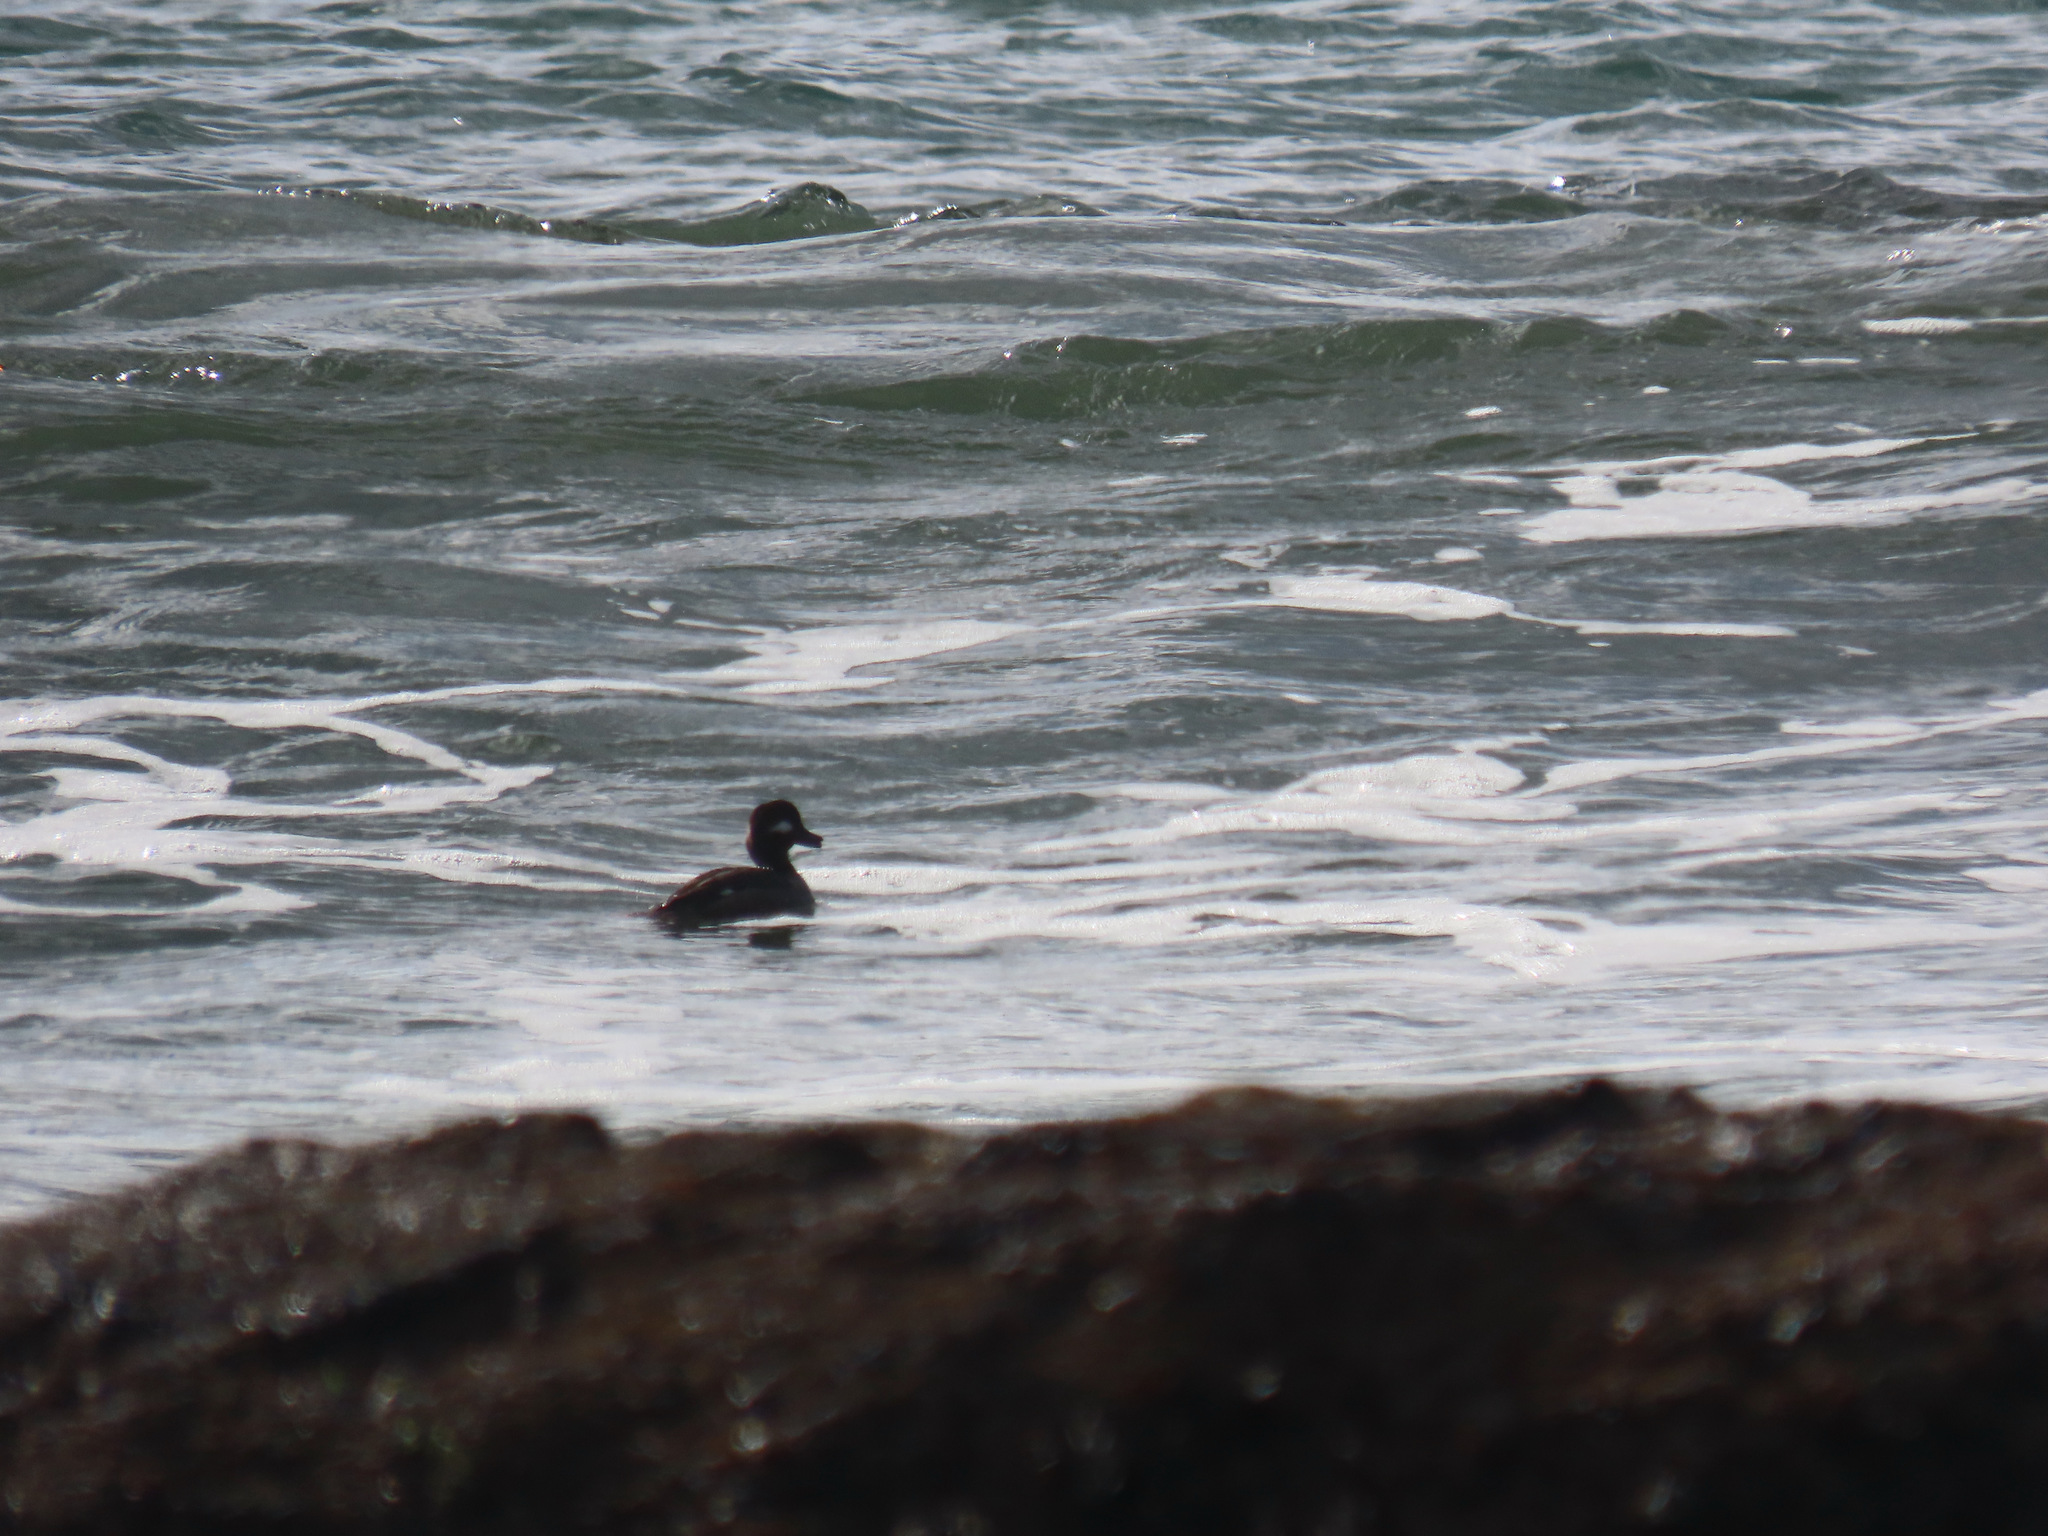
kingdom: Animalia
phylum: Chordata
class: Aves
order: Anseriformes
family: Anatidae
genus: Bucephala
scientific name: Bucephala albeola
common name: Bufflehead
